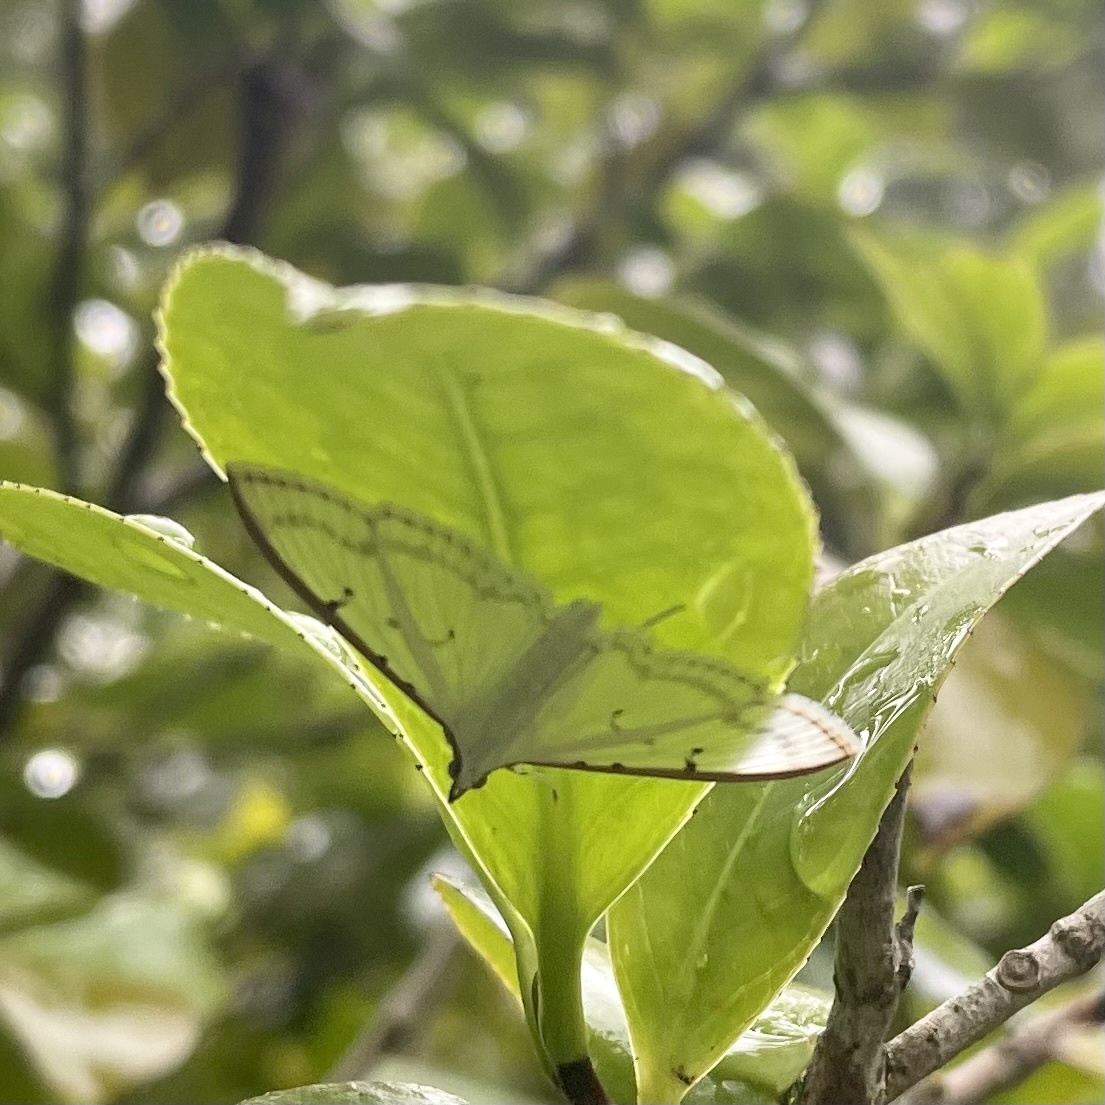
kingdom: Animalia
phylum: Arthropoda
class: Insecta
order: Lepidoptera
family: Crambidae
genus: Palpita
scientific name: Palpita nigropunctalis
